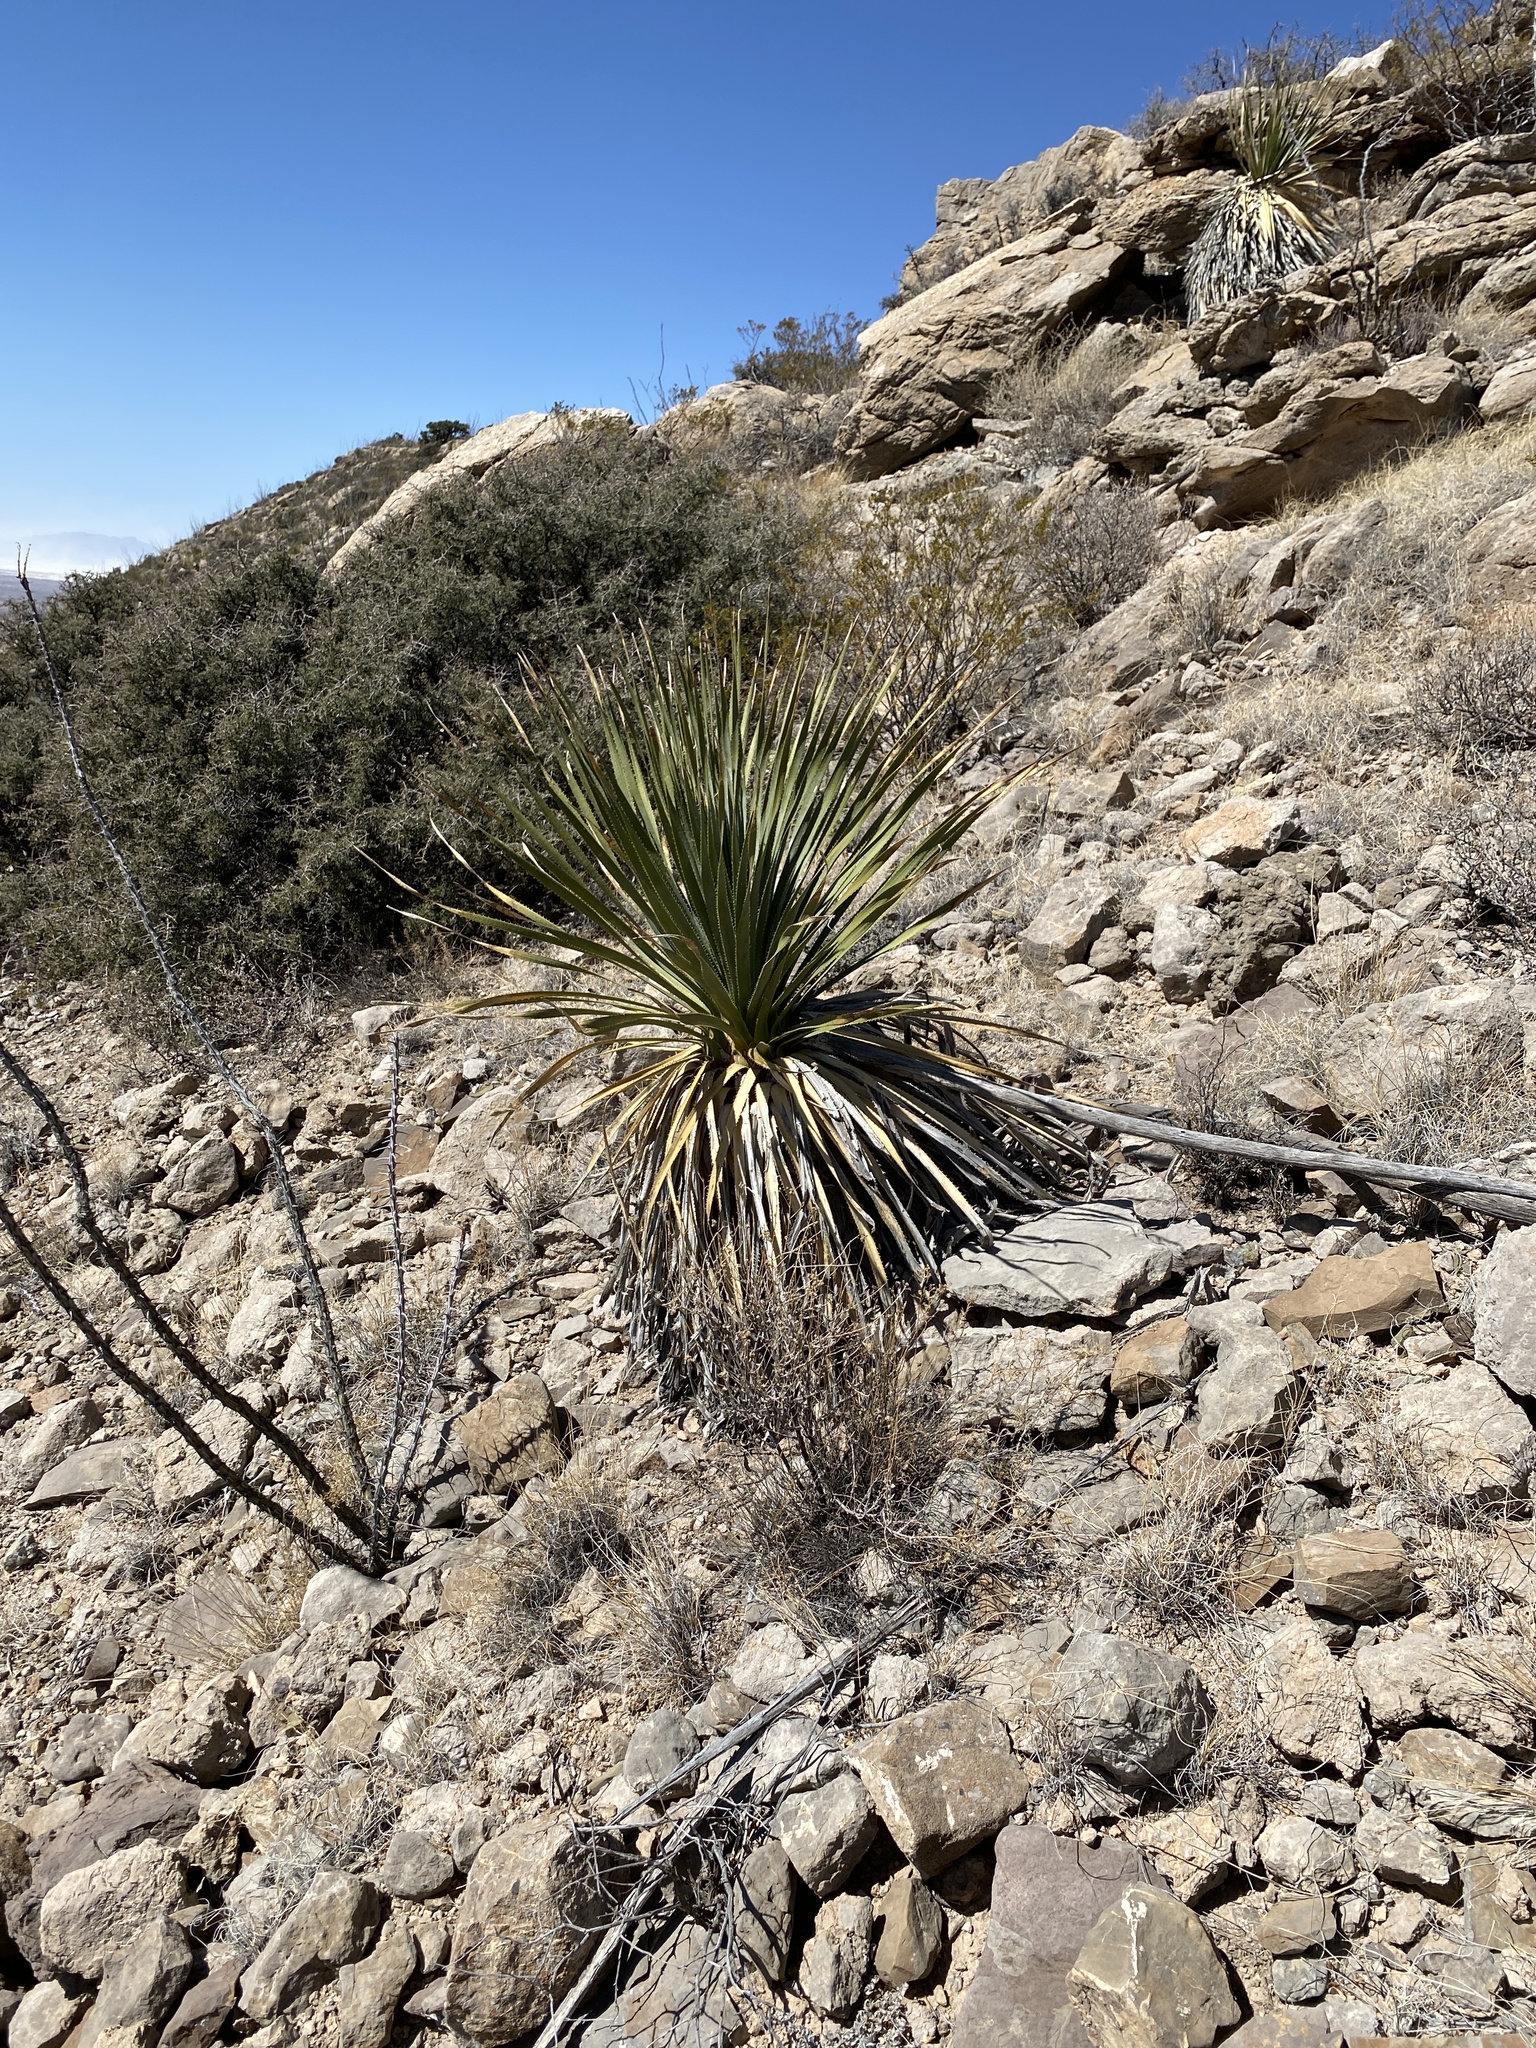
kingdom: Plantae
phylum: Tracheophyta
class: Liliopsida
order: Asparagales
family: Asparagaceae
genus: Dasylirion
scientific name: Dasylirion wheeleri
